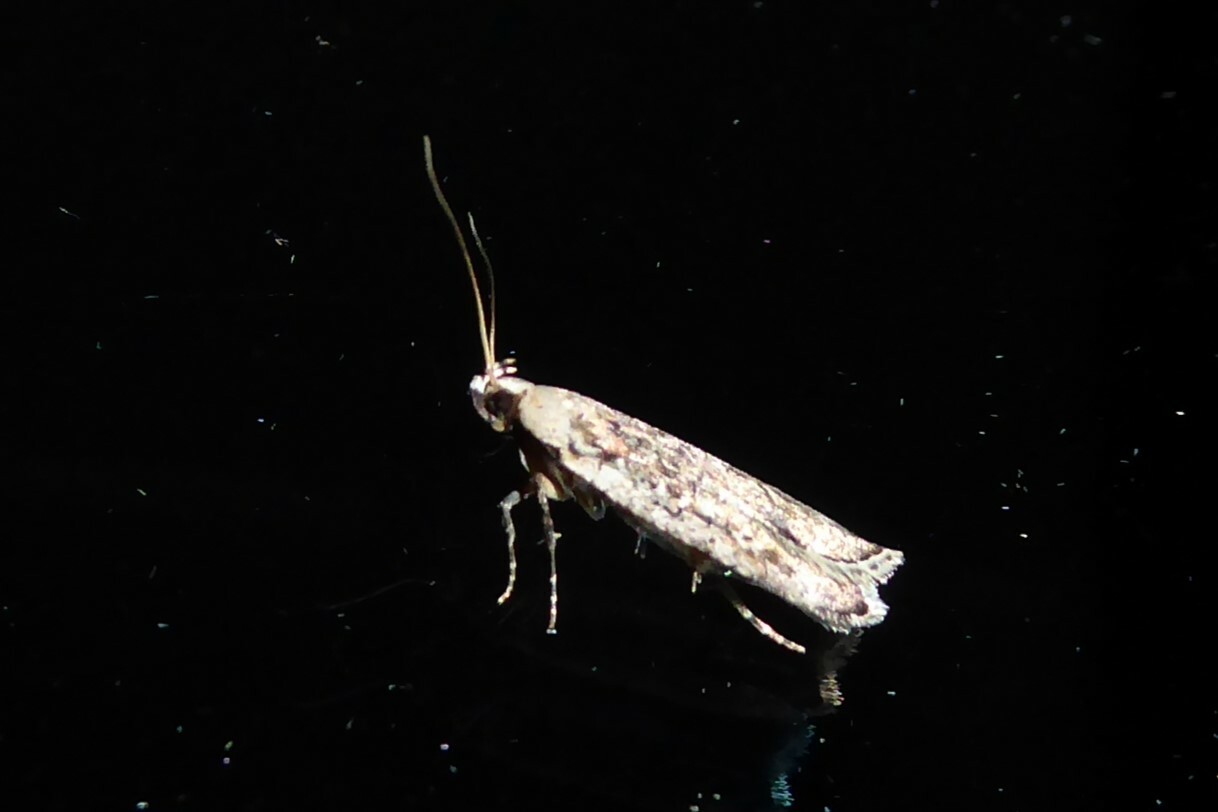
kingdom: Animalia
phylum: Arthropoda
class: Insecta
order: Lepidoptera
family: Gelechiidae
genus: Anisoplaca
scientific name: Anisoplaca achyrota
